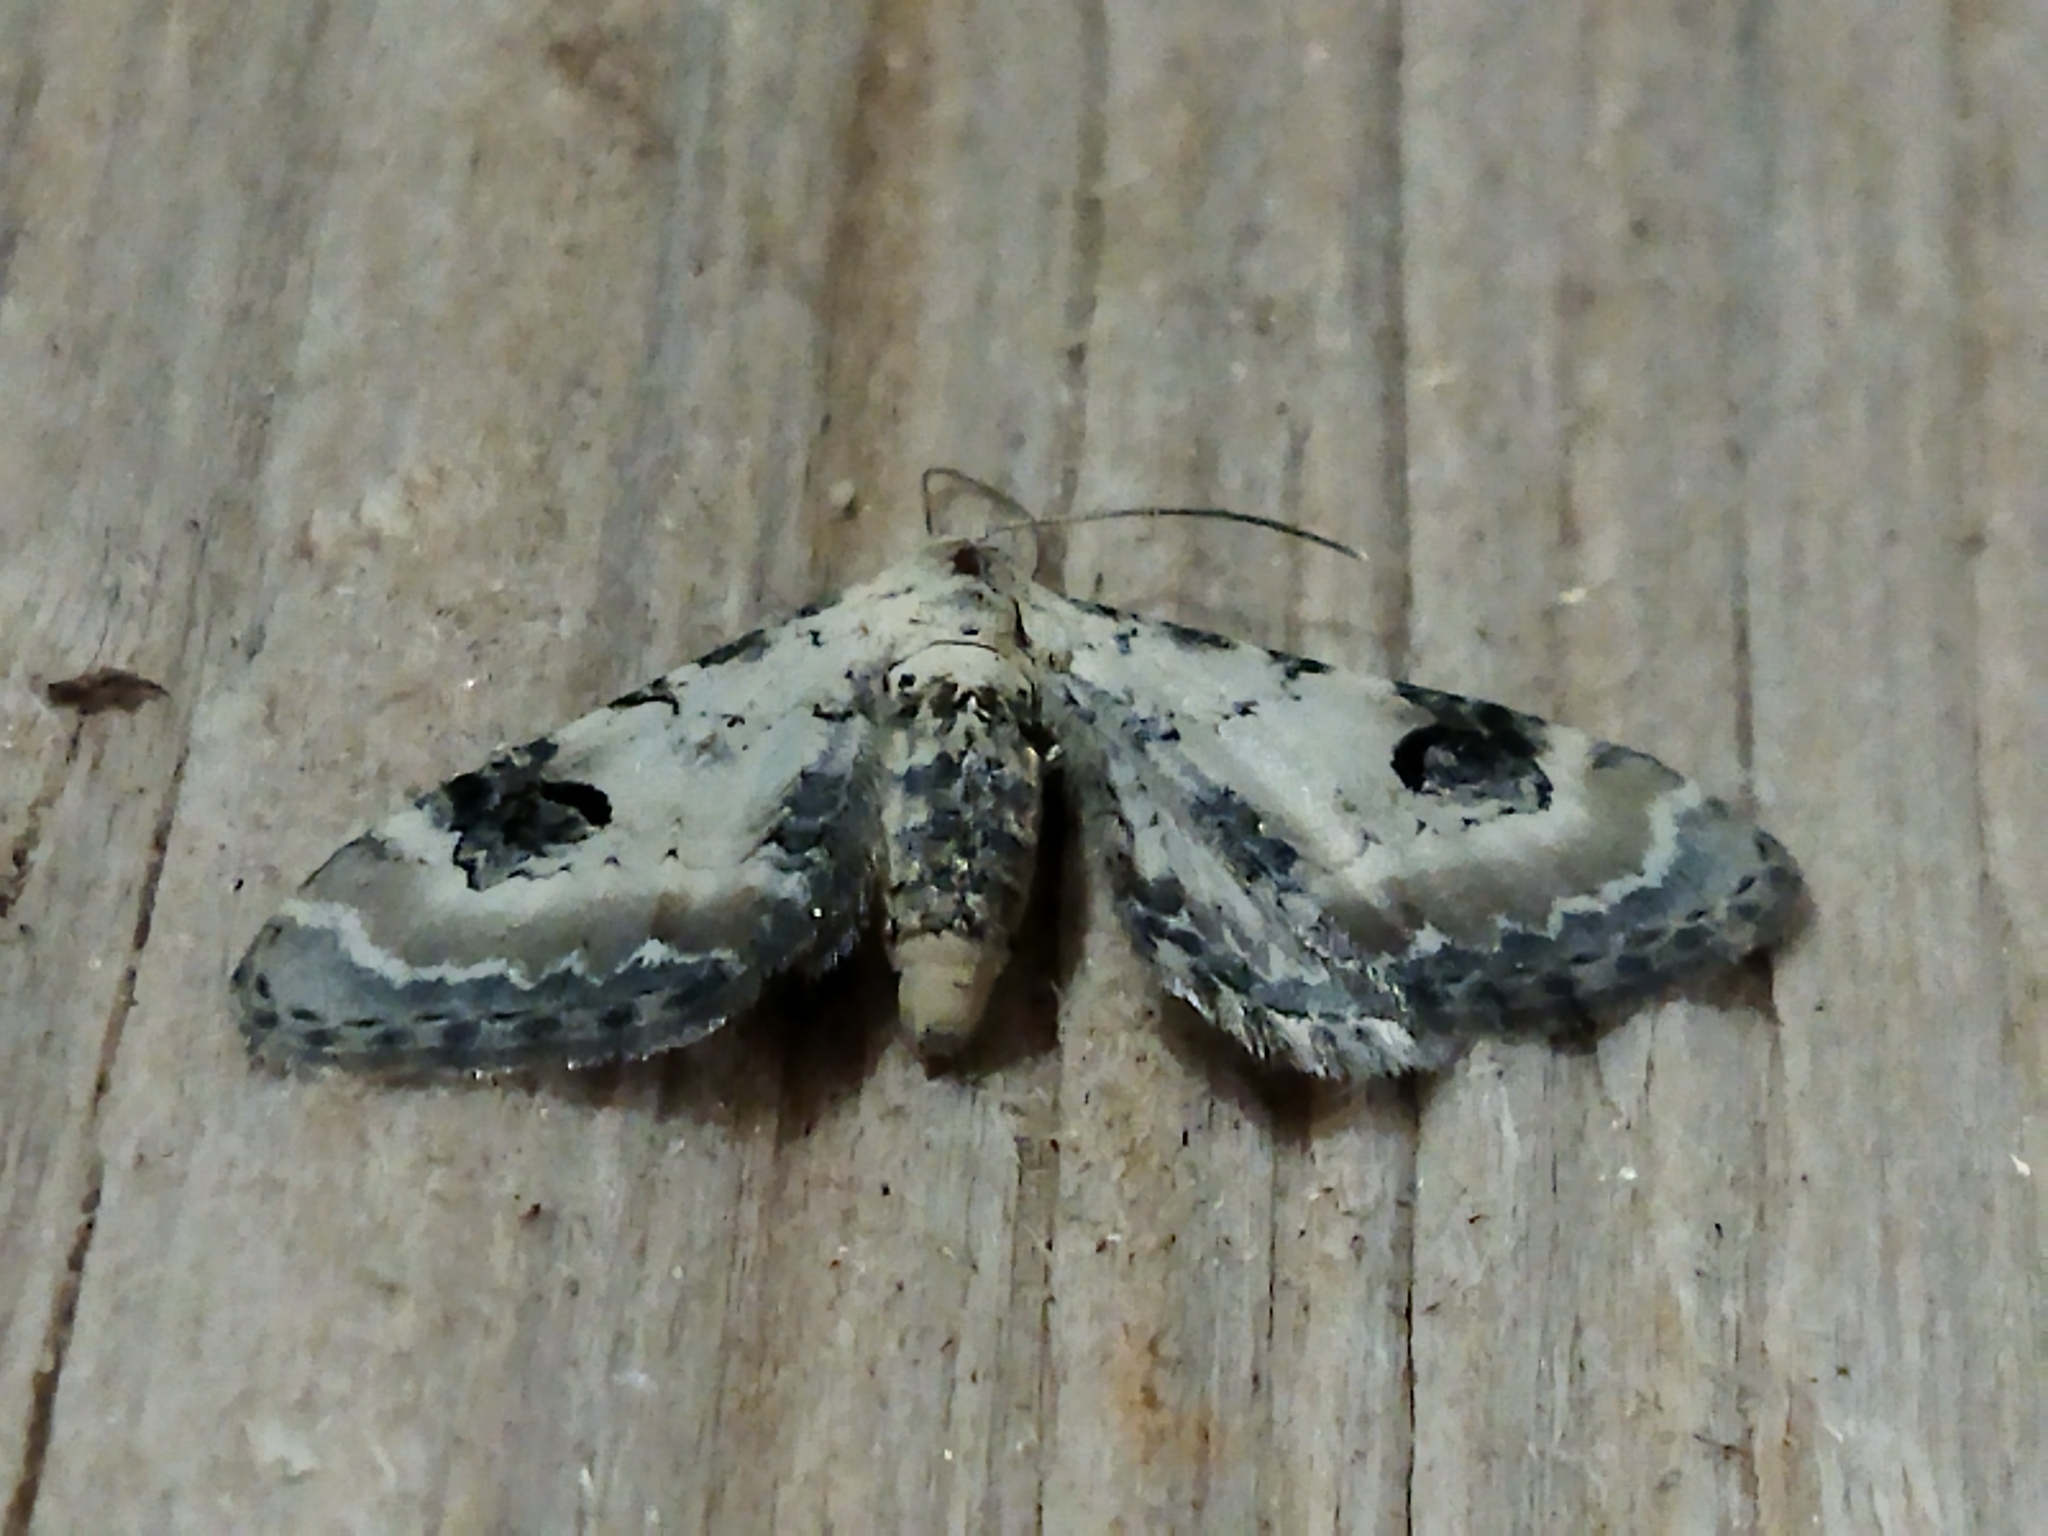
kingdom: Animalia
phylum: Arthropoda
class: Insecta
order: Lepidoptera
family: Geometridae
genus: Eupithecia
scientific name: Eupithecia centaureata
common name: Lime-speck pug
